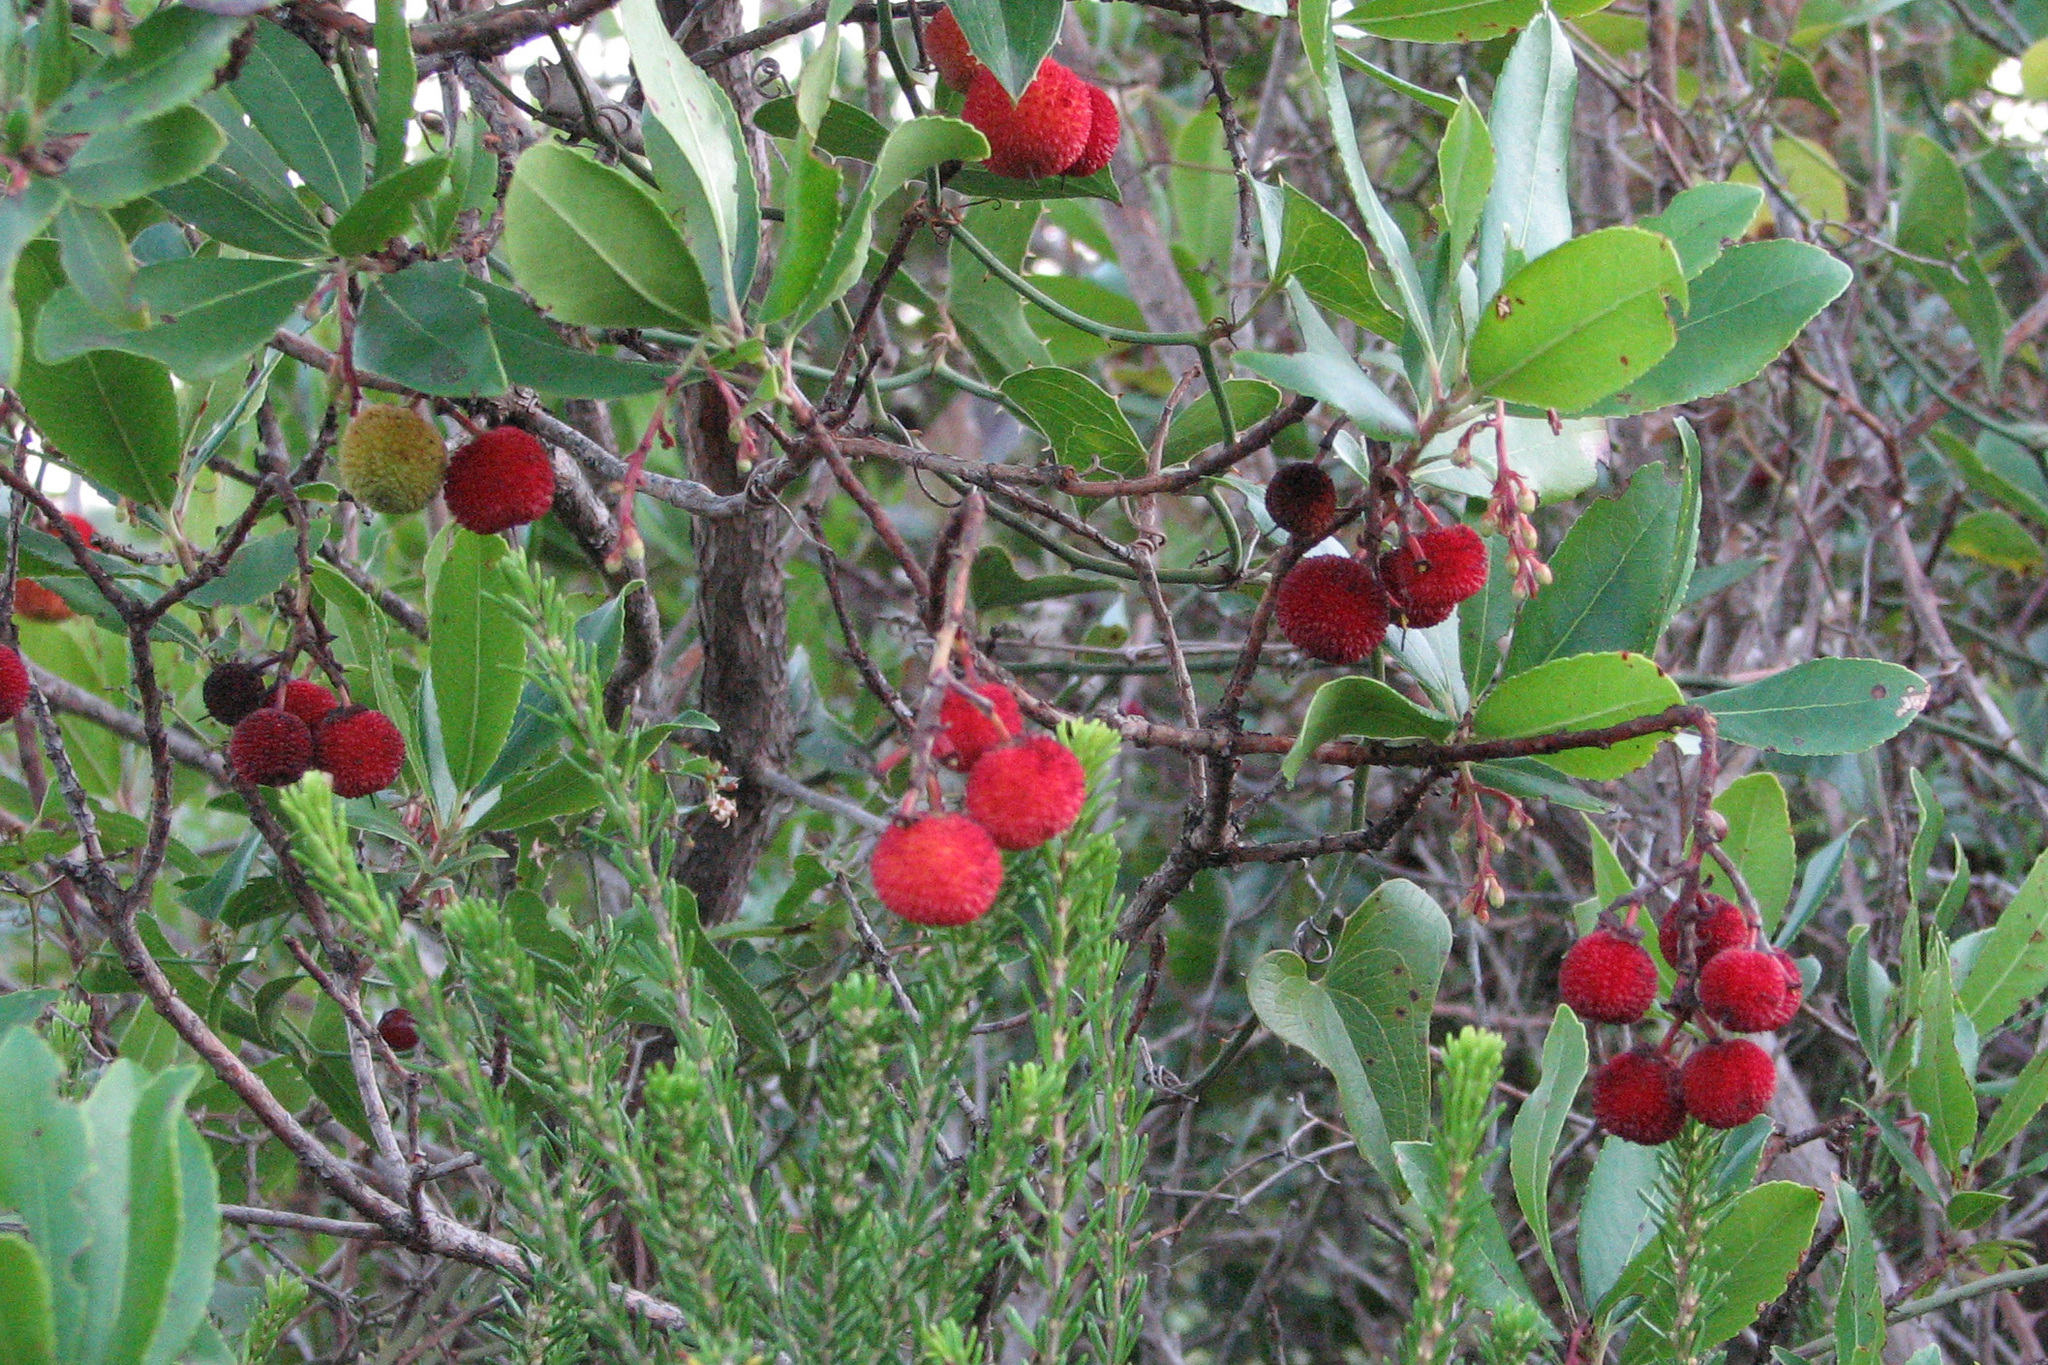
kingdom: Plantae
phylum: Tracheophyta
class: Magnoliopsida
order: Ericales
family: Ericaceae
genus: Arbutus
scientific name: Arbutus unedo
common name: Strawberry-tree
